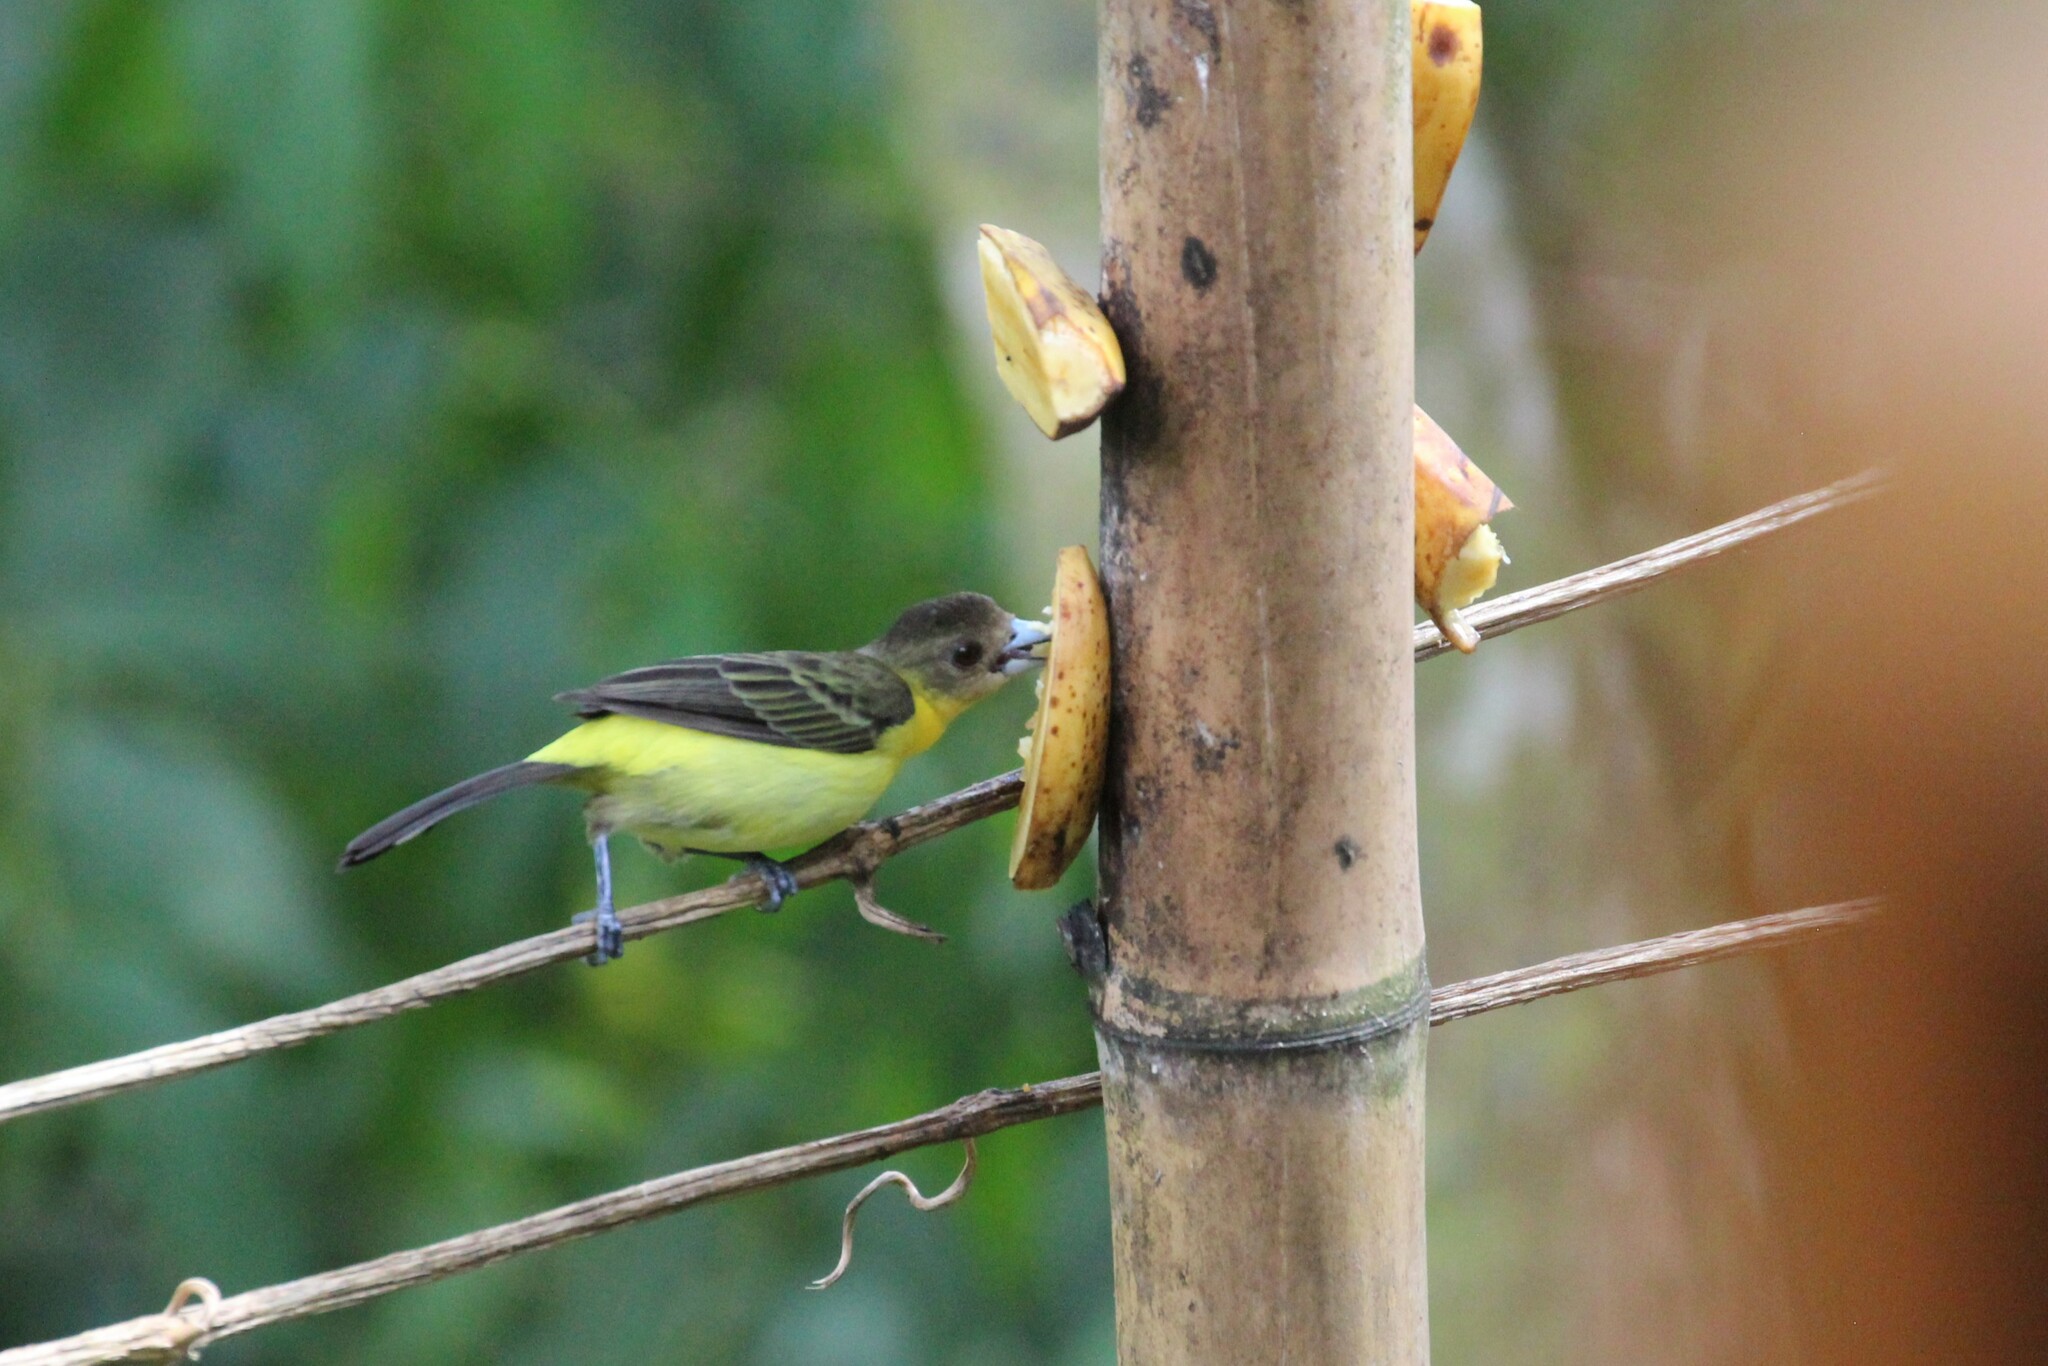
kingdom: Animalia
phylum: Chordata
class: Aves
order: Passeriformes
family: Thraupidae
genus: Ramphocelus
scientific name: Ramphocelus flammigerus
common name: Flame-rumped tanager
